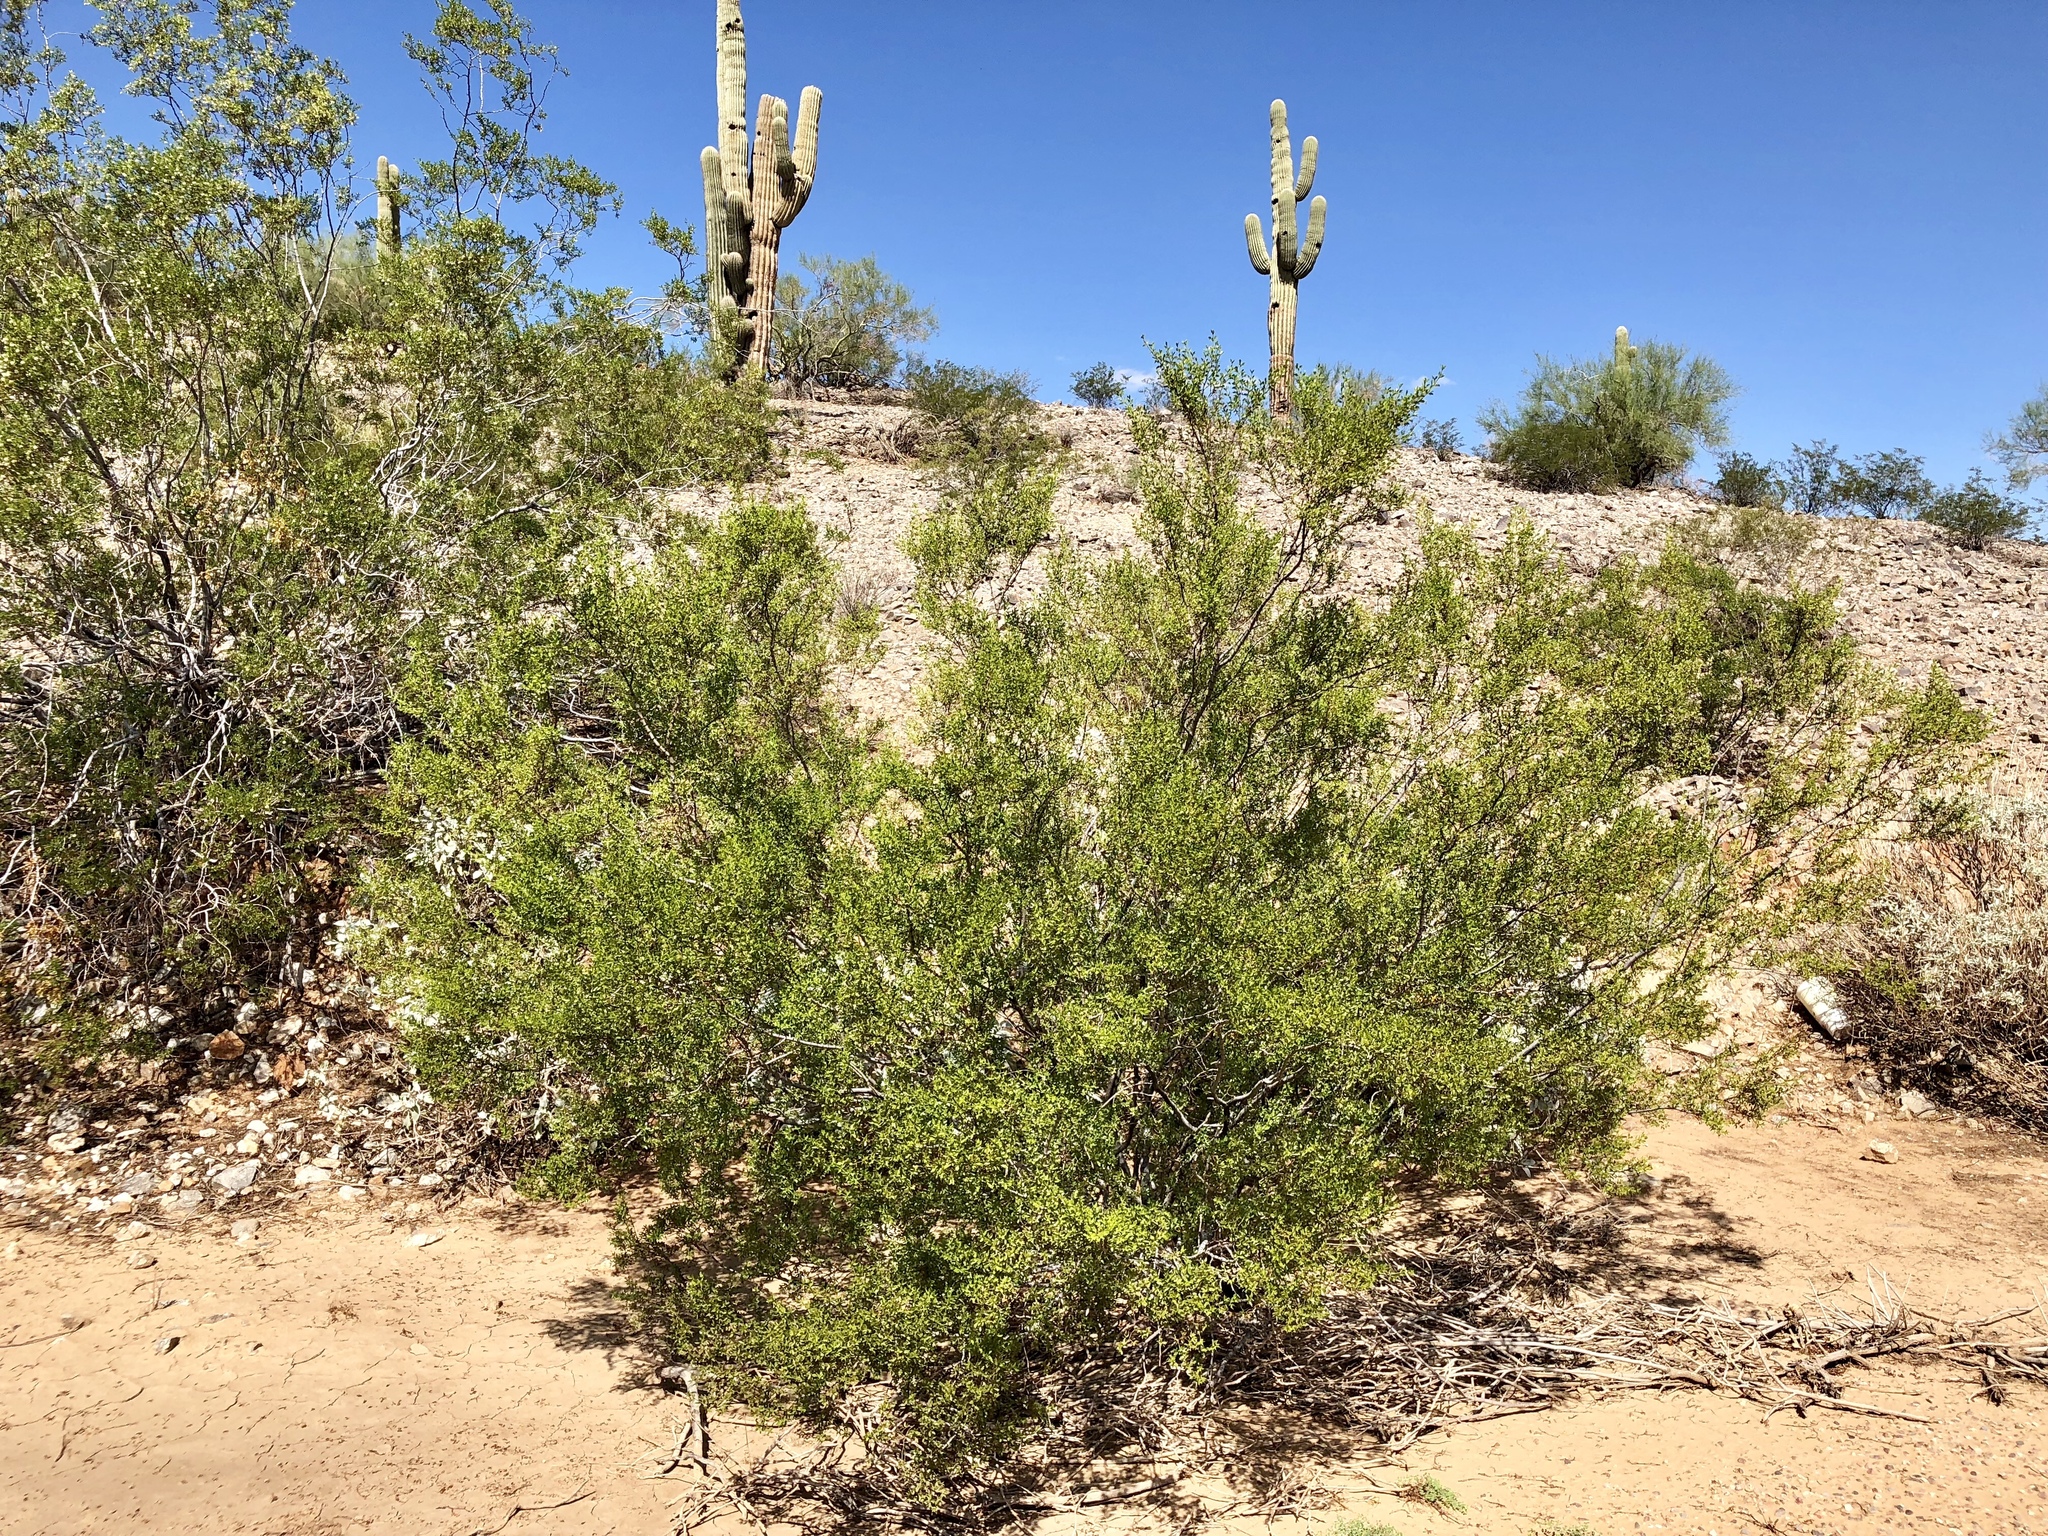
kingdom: Plantae
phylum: Tracheophyta
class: Magnoliopsida
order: Zygophyllales
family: Zygophyllaceae
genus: Larrea
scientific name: Larrea tridentata
